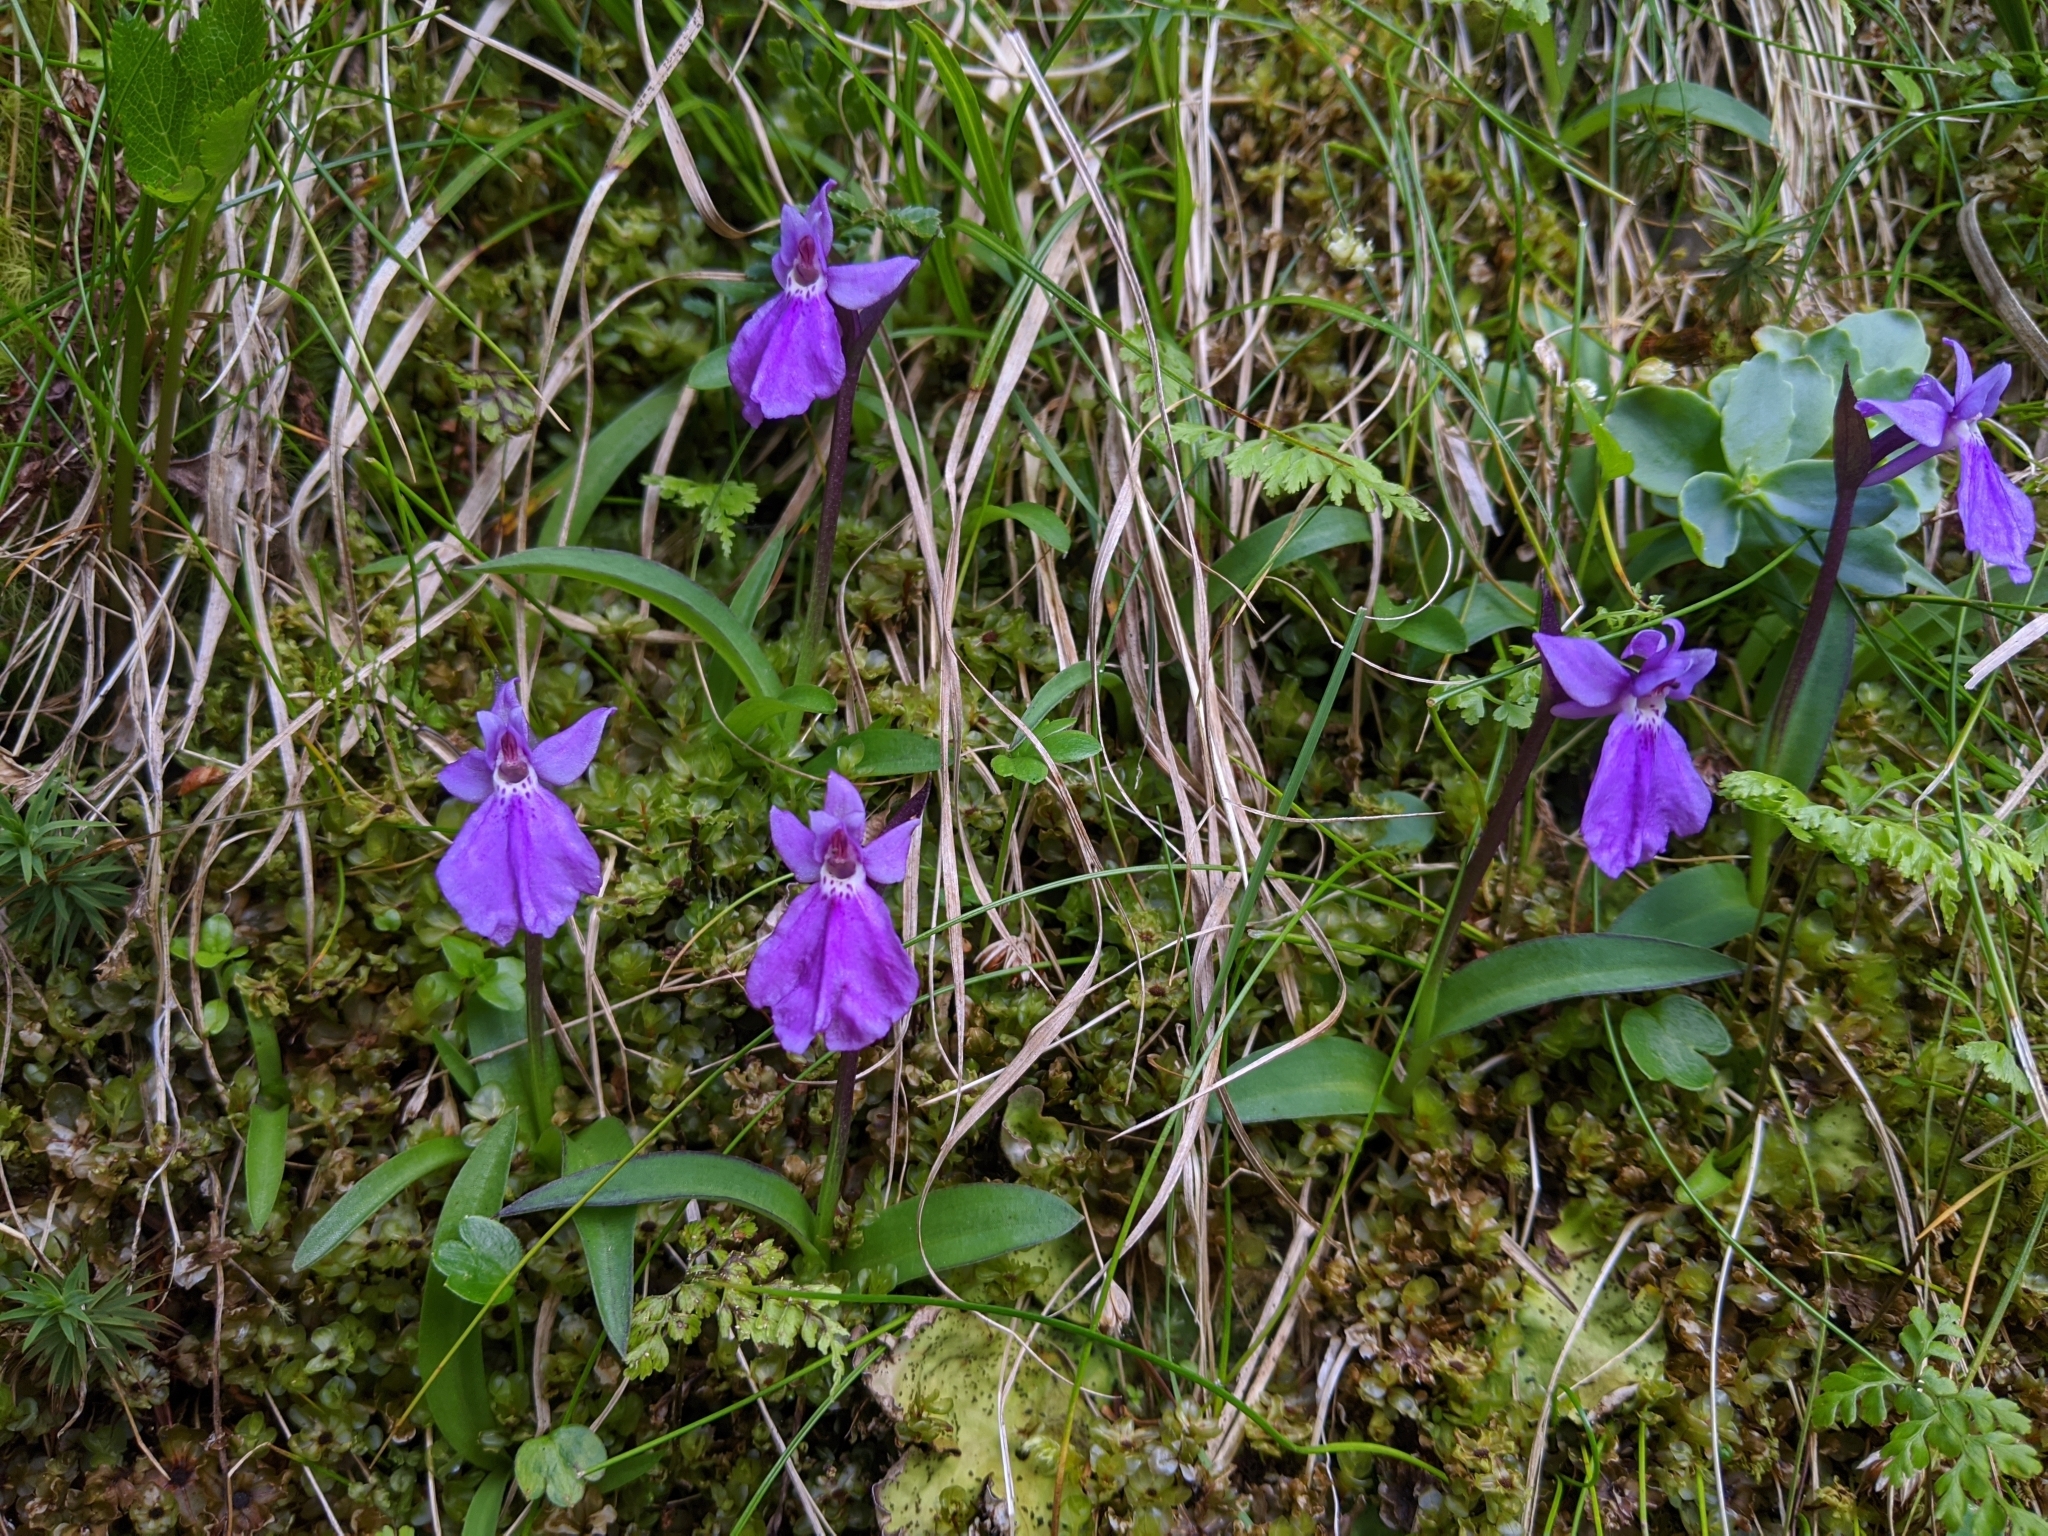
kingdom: Plantae
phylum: Tracheophyta
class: Liliopsida
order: Asparagales
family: Orchidaceae
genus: Hemipilia
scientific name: Hemipilia kiraishiensis
